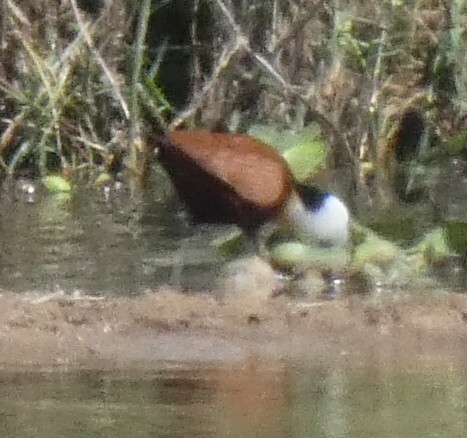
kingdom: Animalia
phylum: Chordata
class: Aves
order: Charadriiformes
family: Jacanidae
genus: Actophilornis
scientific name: Actophilornis africanus
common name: African jacana
